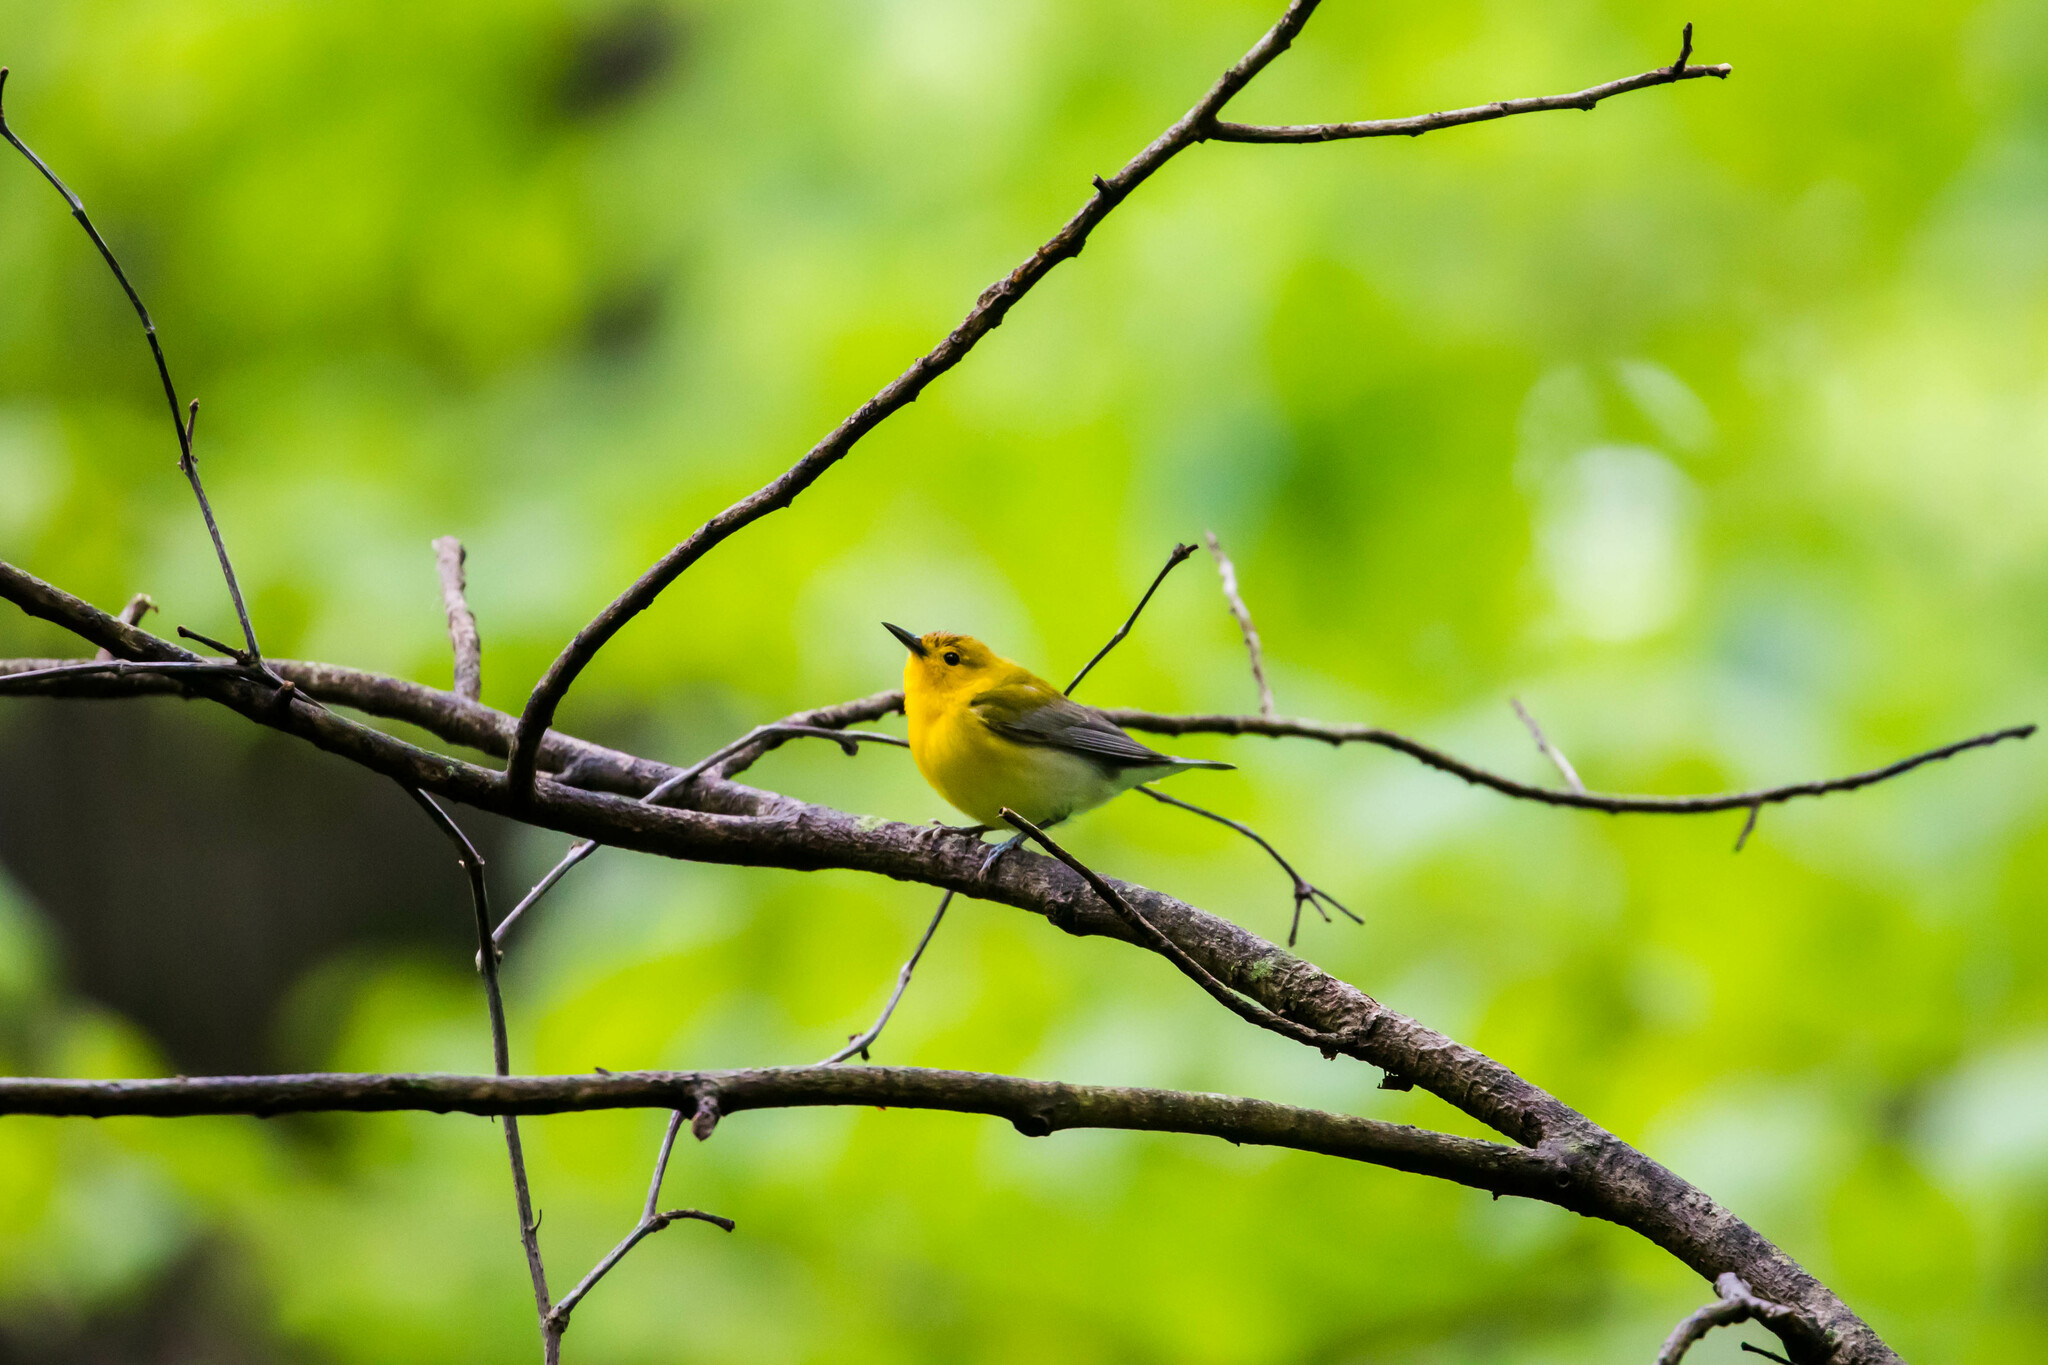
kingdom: Animalia
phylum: Chordata
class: Aves
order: Passeriformes
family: Parulidae
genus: Protonotaria
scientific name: Protonotaria citrea
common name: Prothonotary warbler
